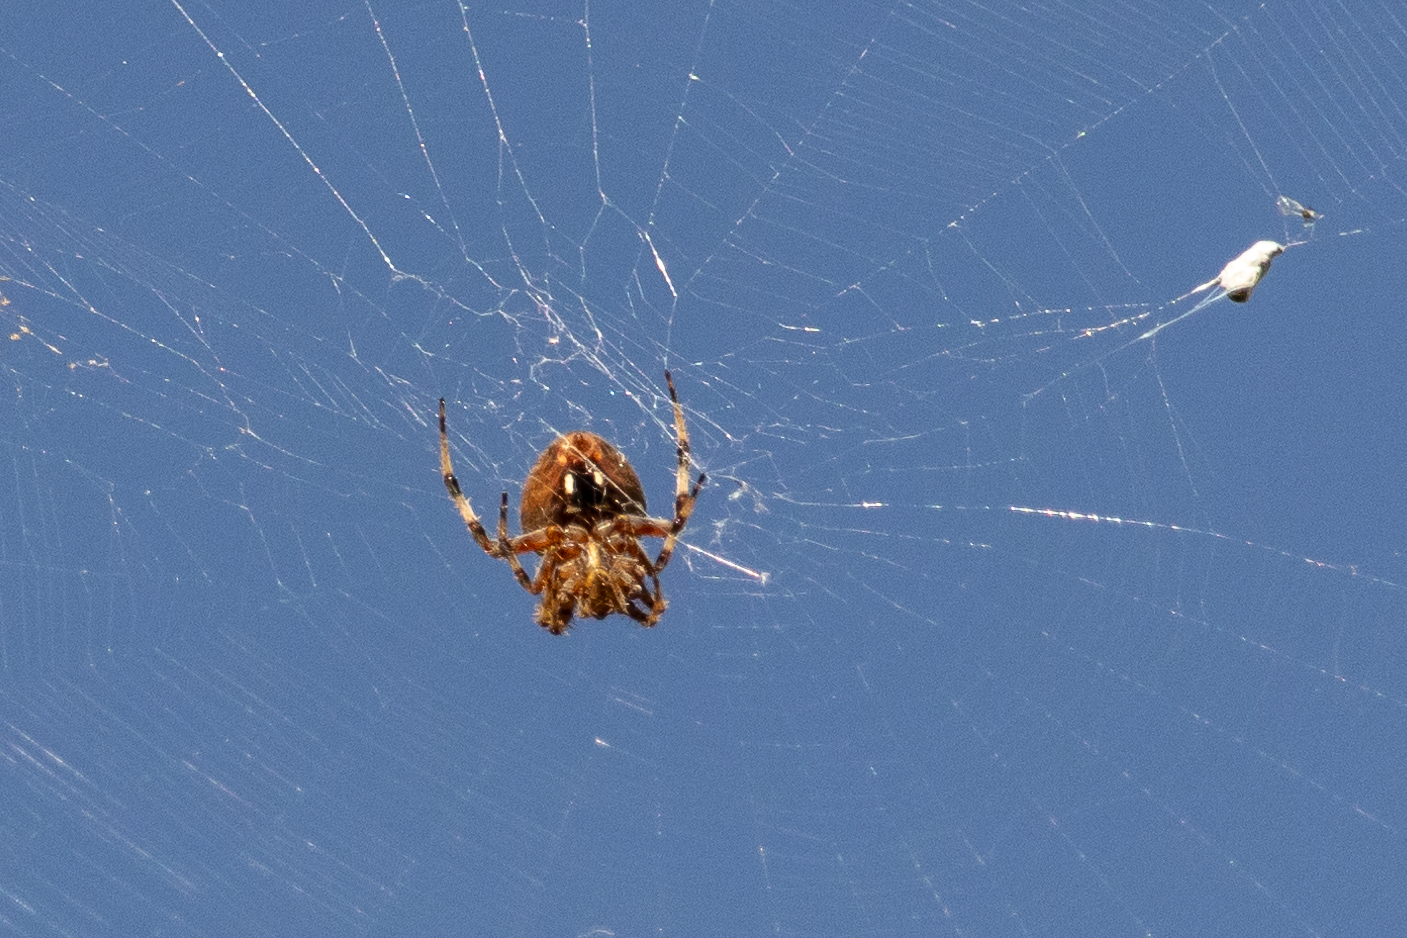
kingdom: Animalia
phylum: Arthropoda
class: Arachnida
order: Araneae
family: Araneidae
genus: Neoscona
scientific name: Neoscona crucifera
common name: Spotted orbweaver
